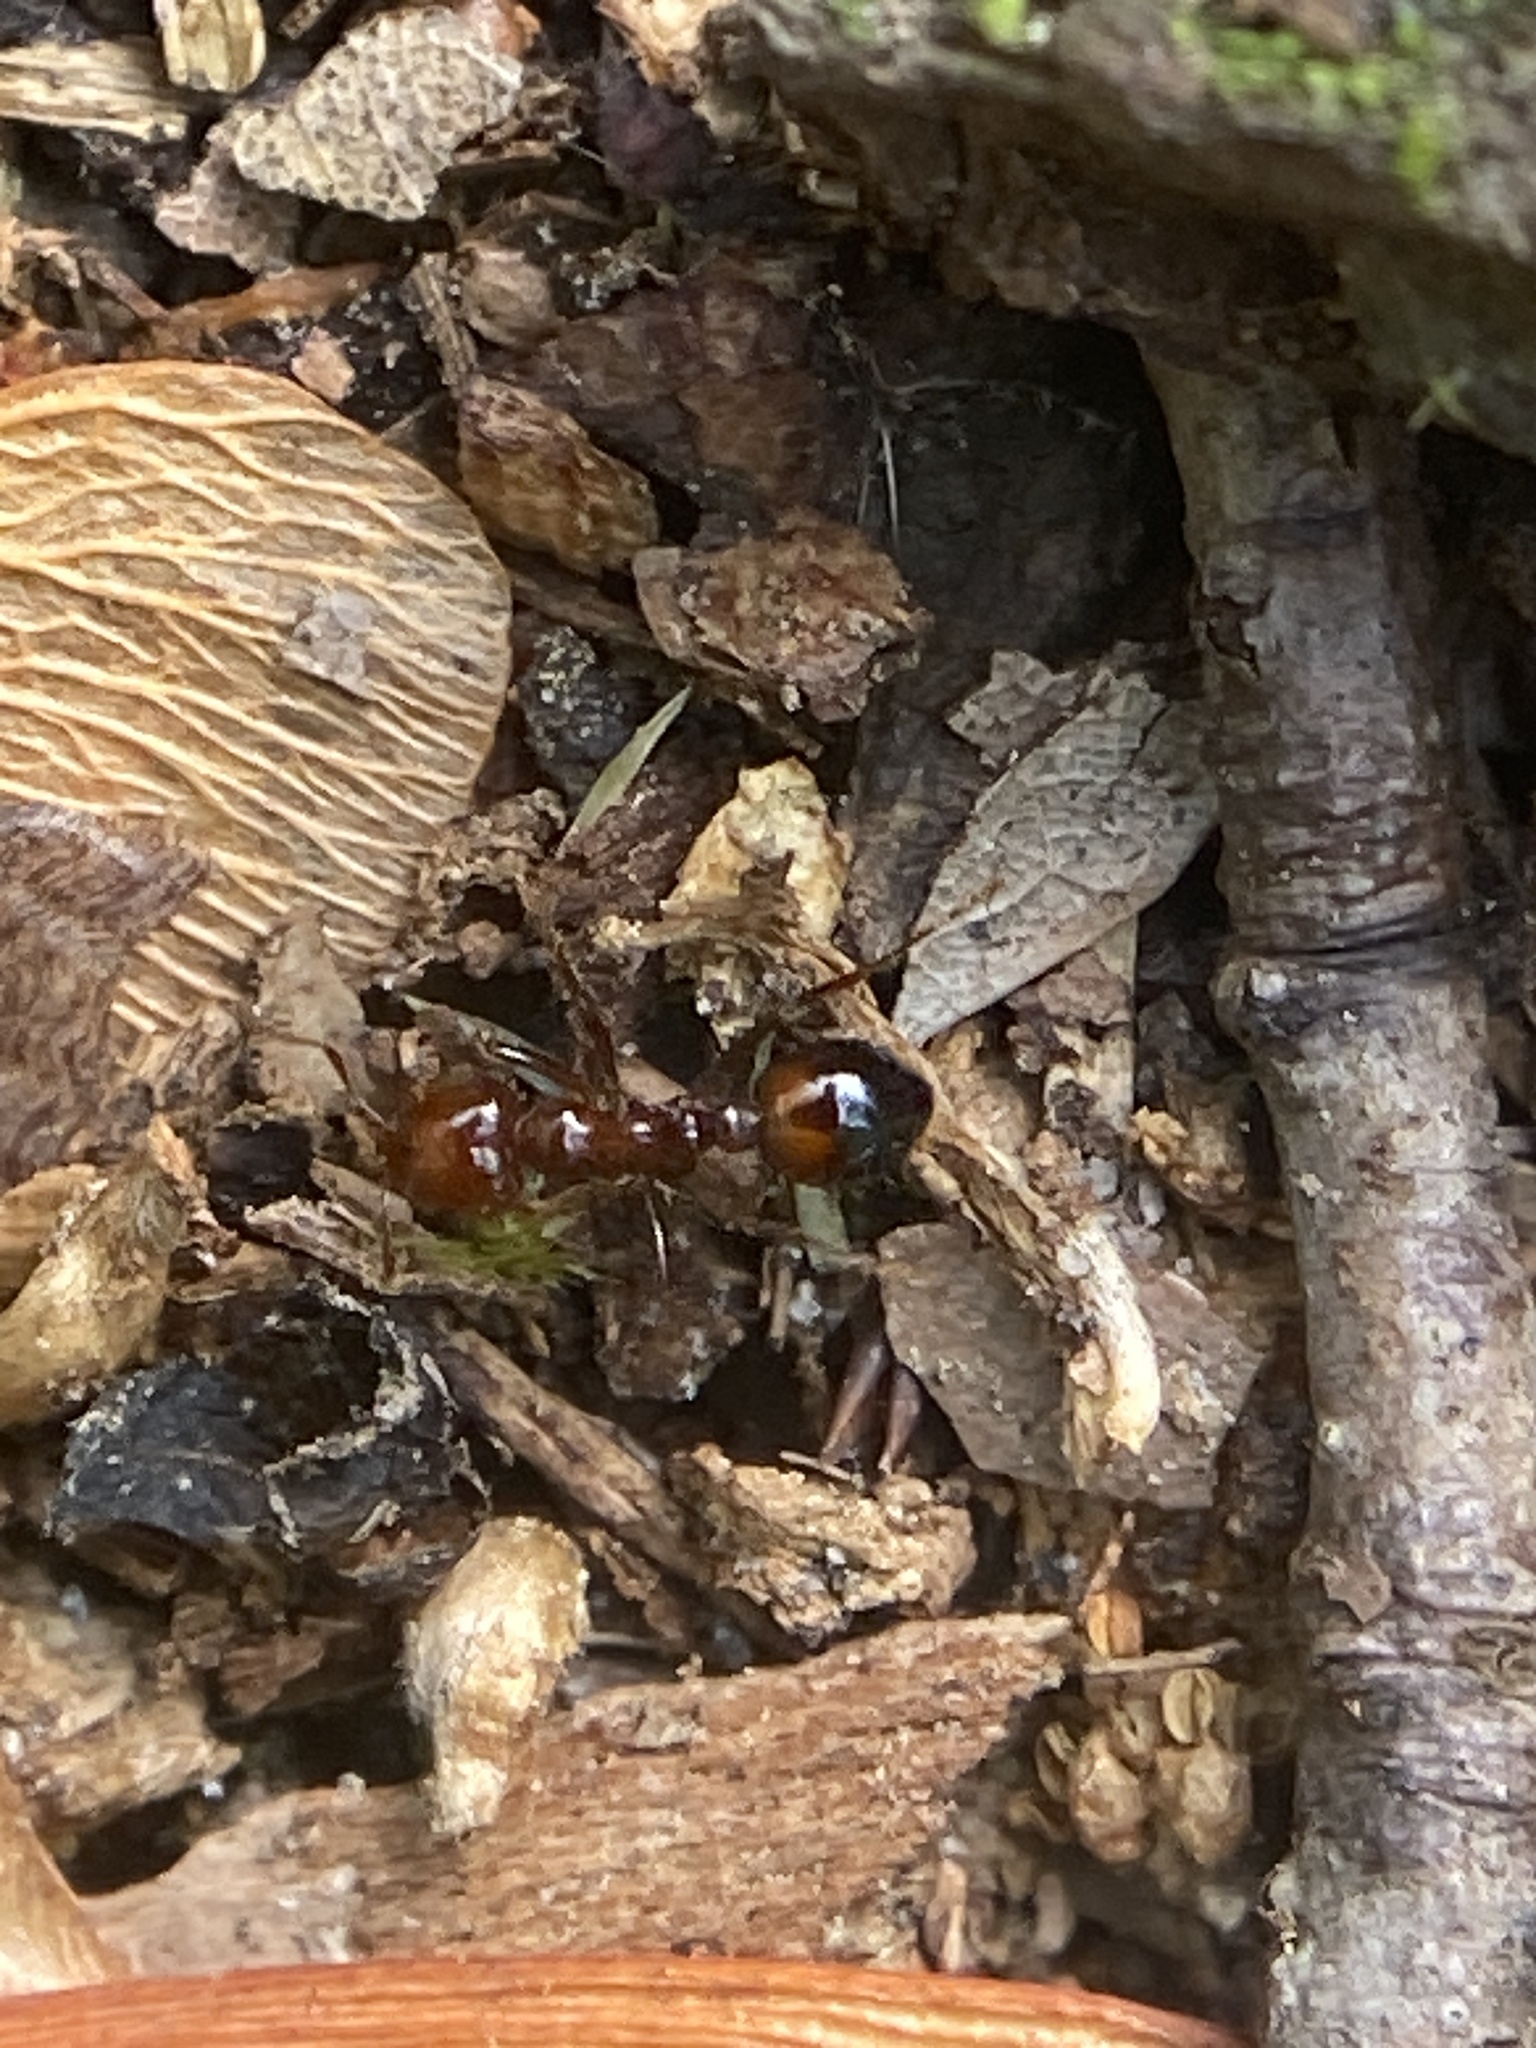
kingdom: Animalia
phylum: Arthropoda
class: Insecta
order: Hymenoptera
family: Formicidae
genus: Solenopsis
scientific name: Solenopsis invicta
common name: Red imported fire ant
